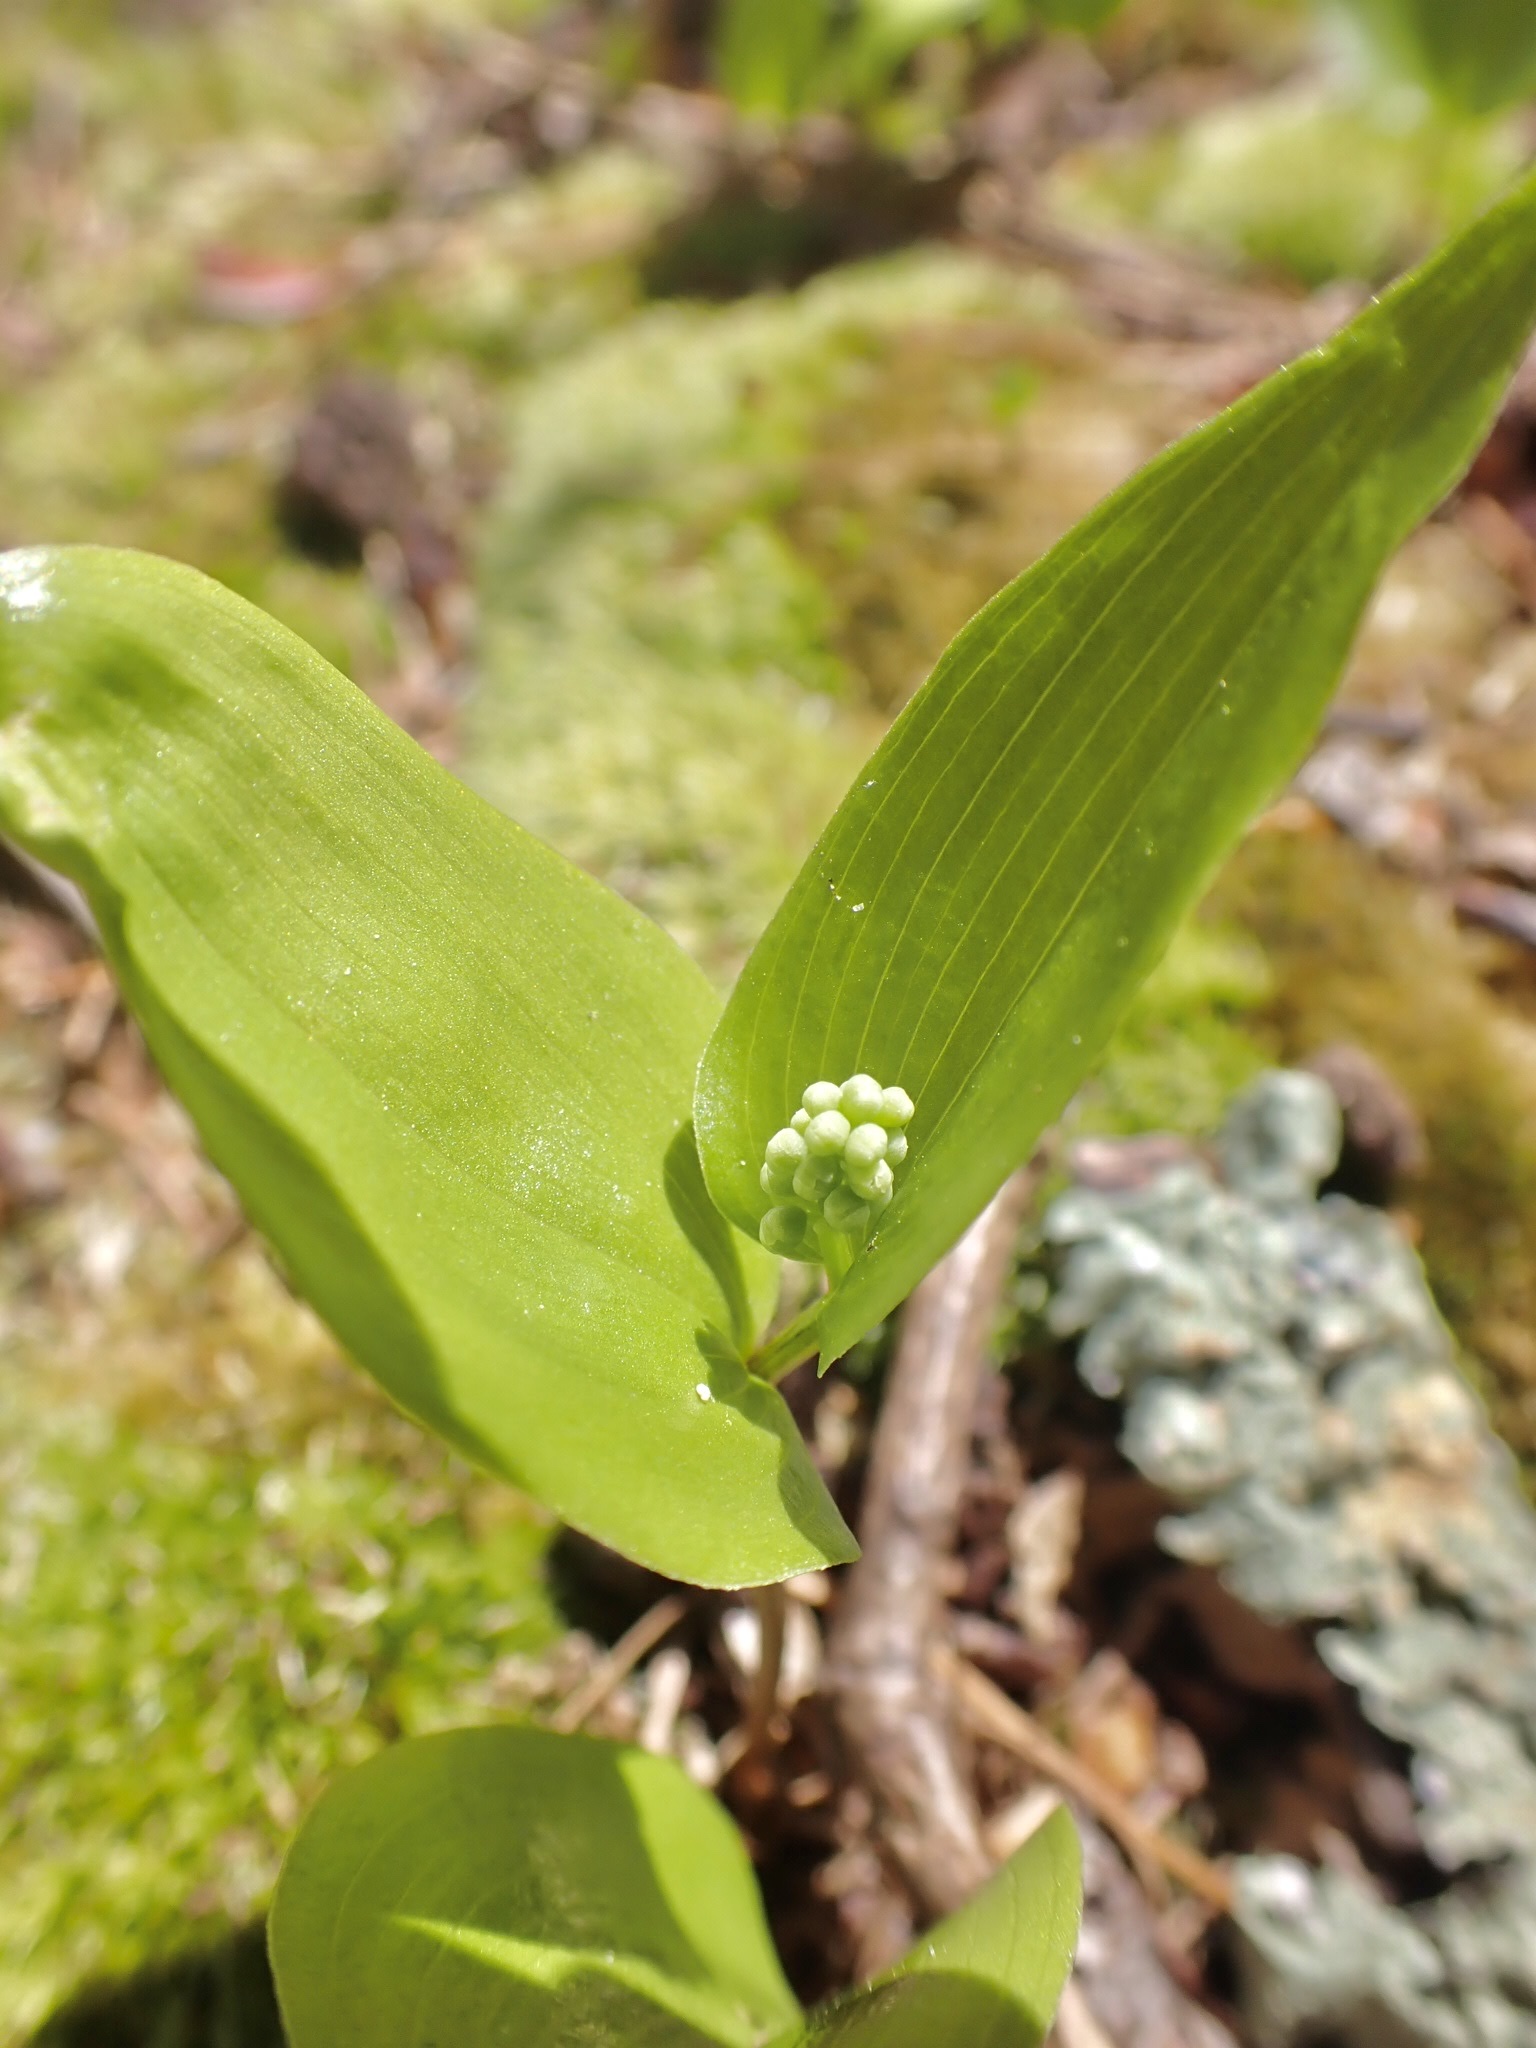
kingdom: Plantae
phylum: Tracheophyta
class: Liliopsida
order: Asparagales
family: Asparagaceae
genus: Maianthemum
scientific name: Maianthemum canadense
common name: False lily-of-the-valley
